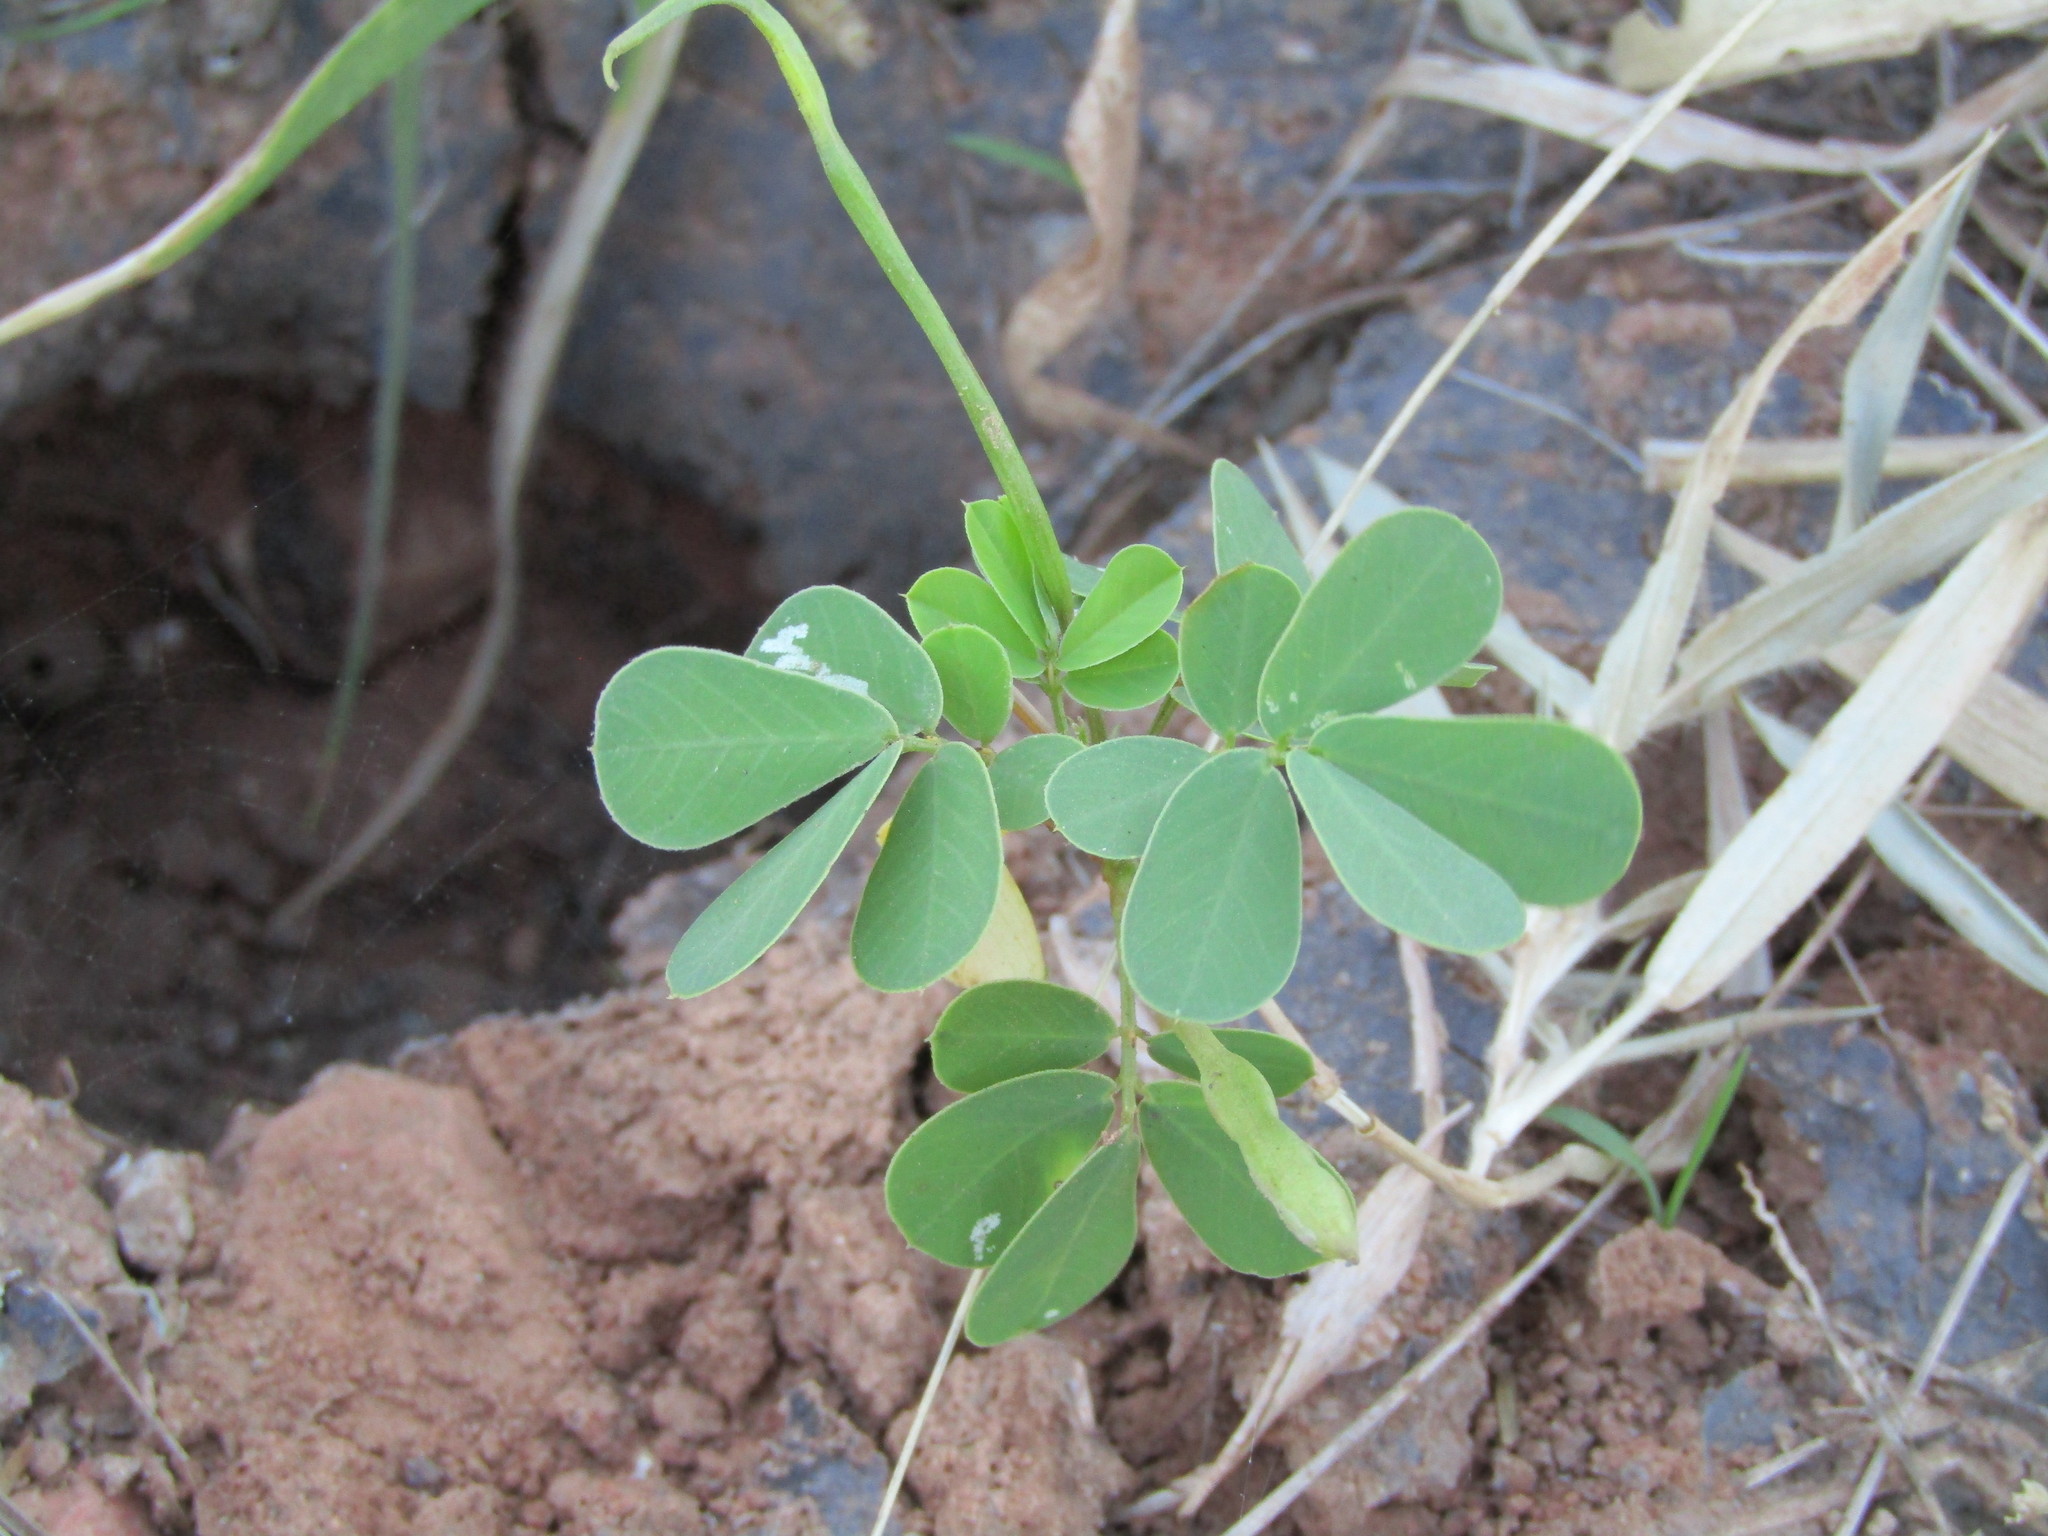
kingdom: Plantae
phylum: Tracheophyta
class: Magnoliopsida
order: Fabales
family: Fabaceae
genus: Senna
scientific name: Senna obtusifolia
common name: Java-bean
